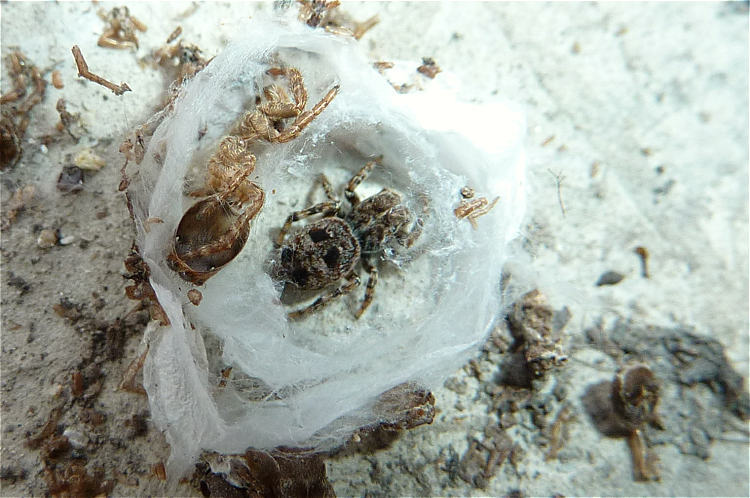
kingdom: Animalia
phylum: Arthropoda
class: Arachnida
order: Araneae
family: Salticidae
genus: Attulus
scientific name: Attulus rupicola
